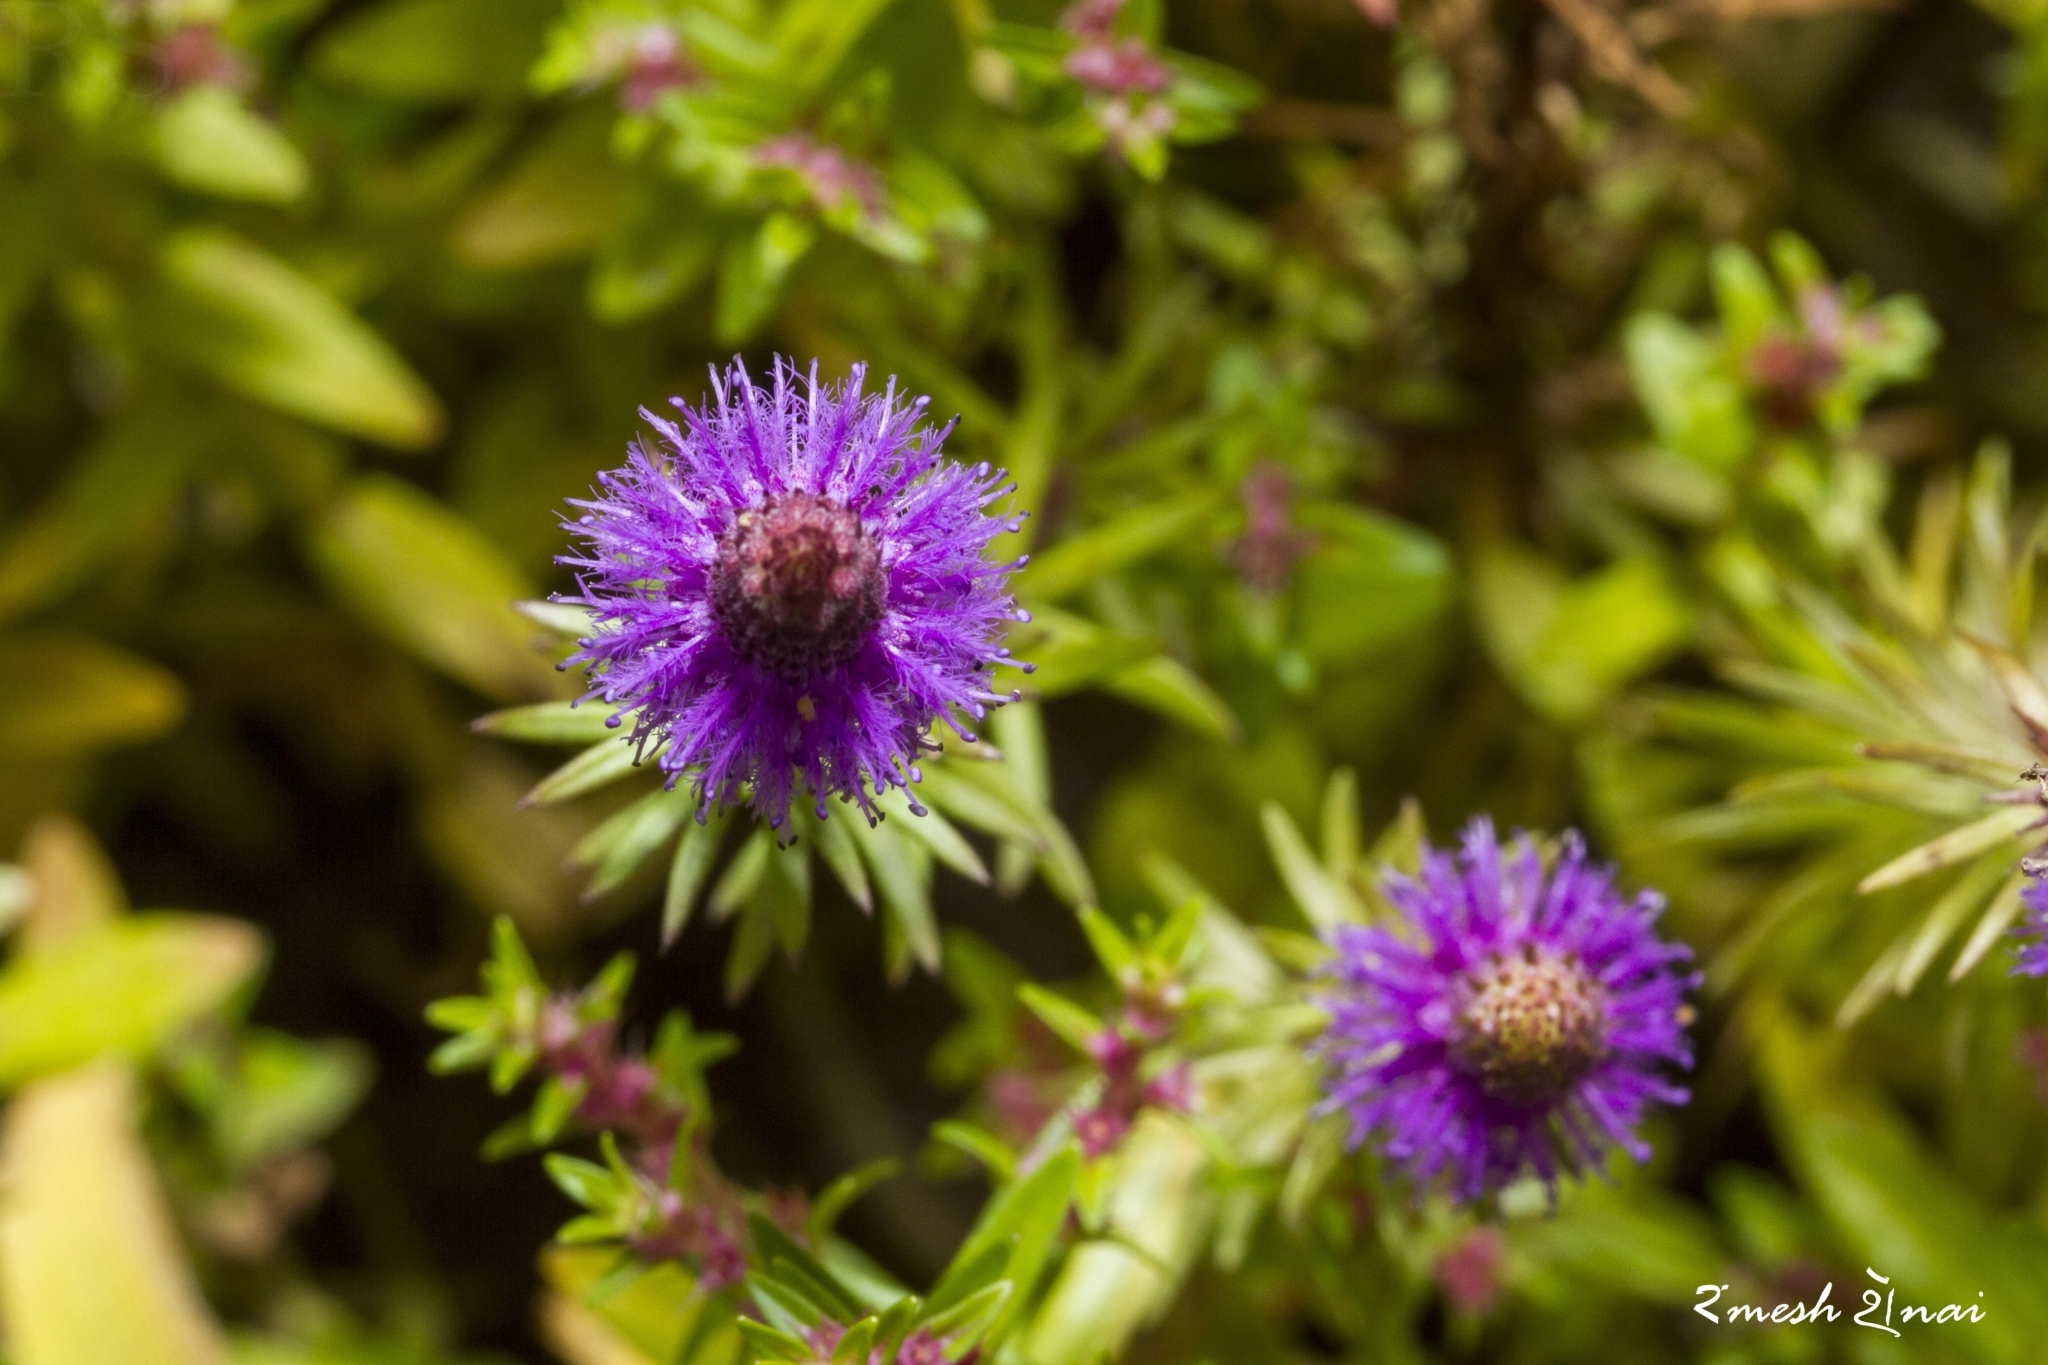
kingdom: Plantae
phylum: Tracheophyta
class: Magnoliopsida
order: Lamiales
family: Lamiaceae
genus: Pogostemon
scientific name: Pogostemon deccanensis
